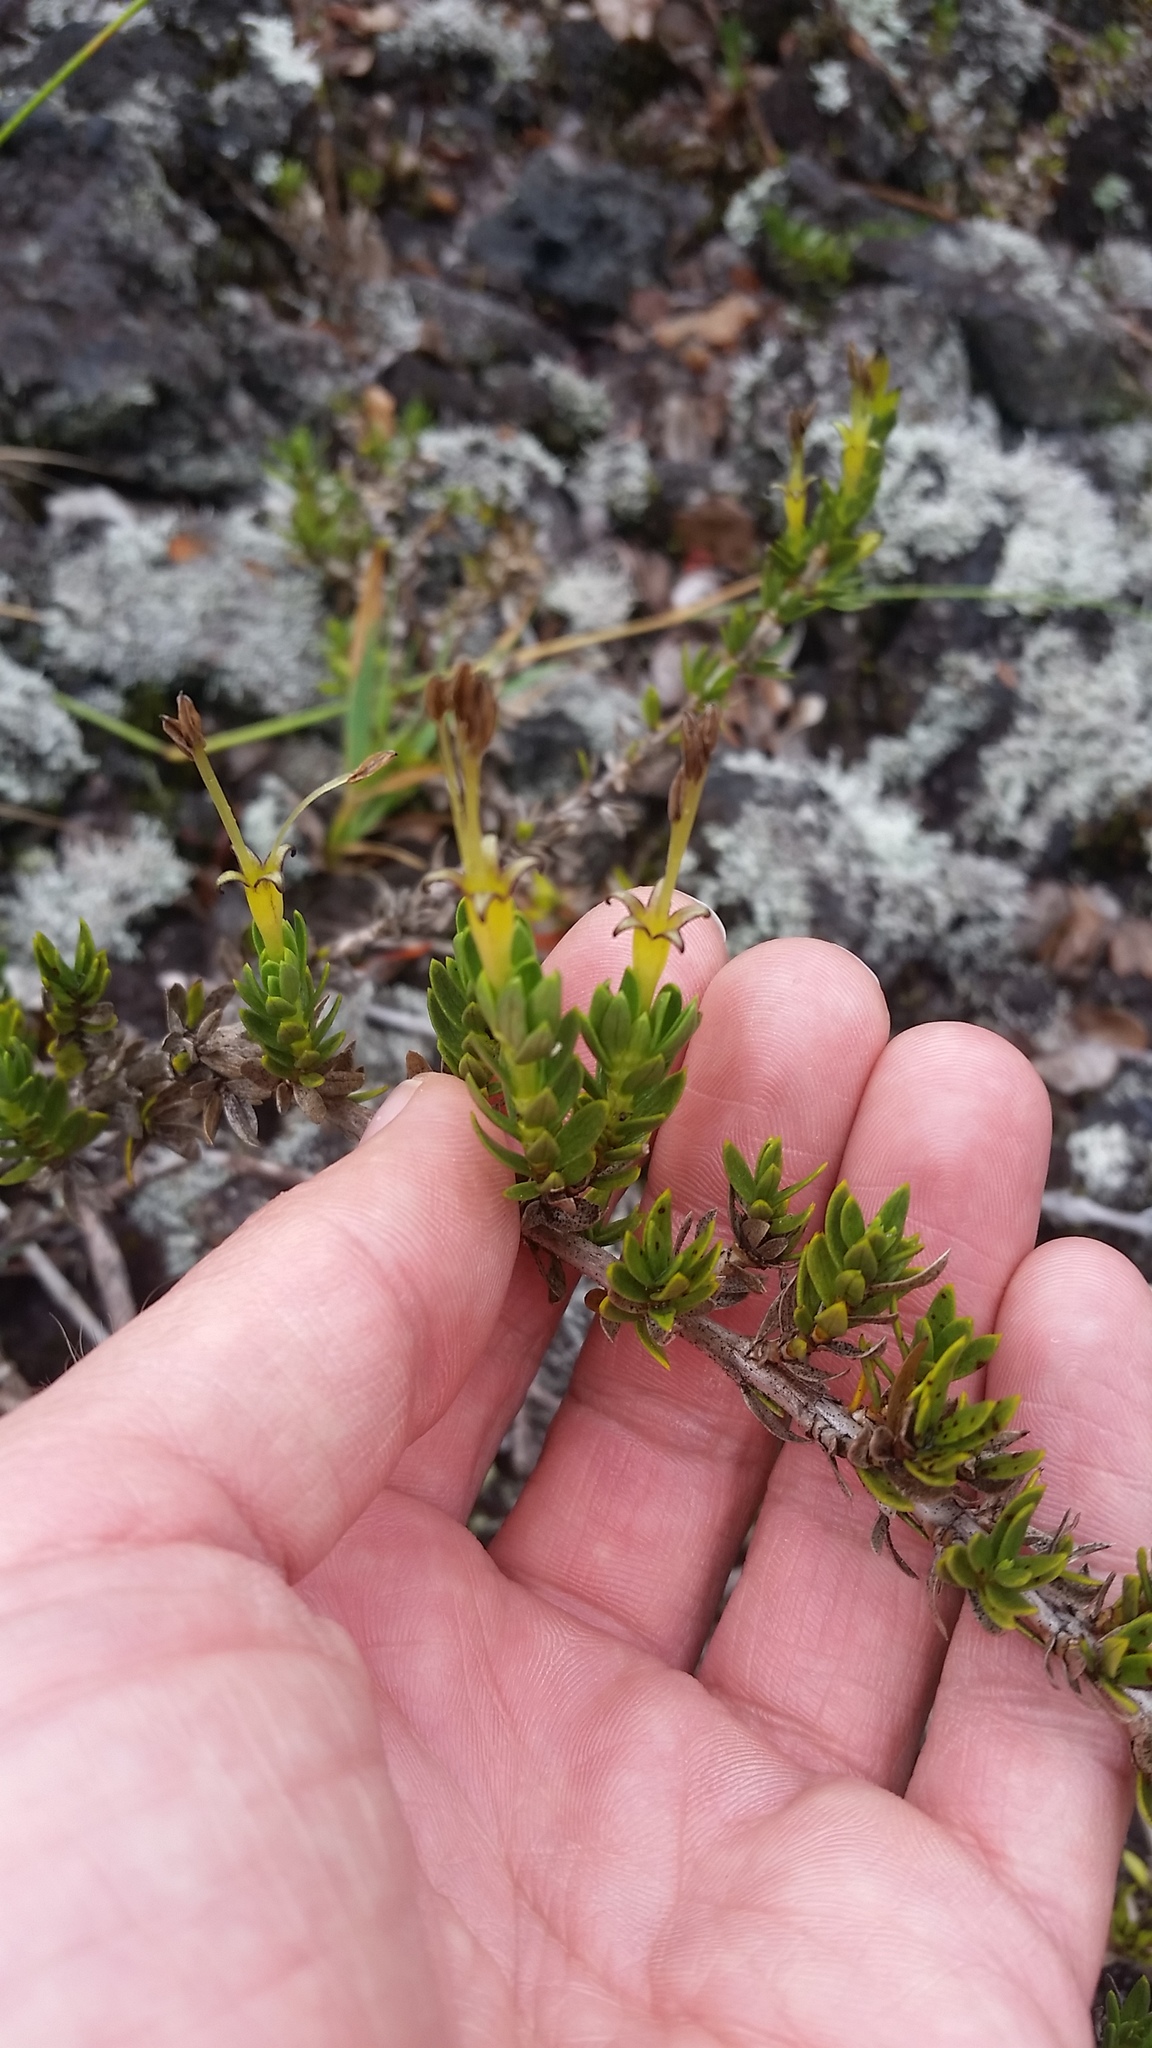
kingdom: Plantae
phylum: Tracheophyta
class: Magnoliopsida
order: Gentianales
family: Rubiaceae
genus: Coprosma
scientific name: Coprosma ernodeoides
